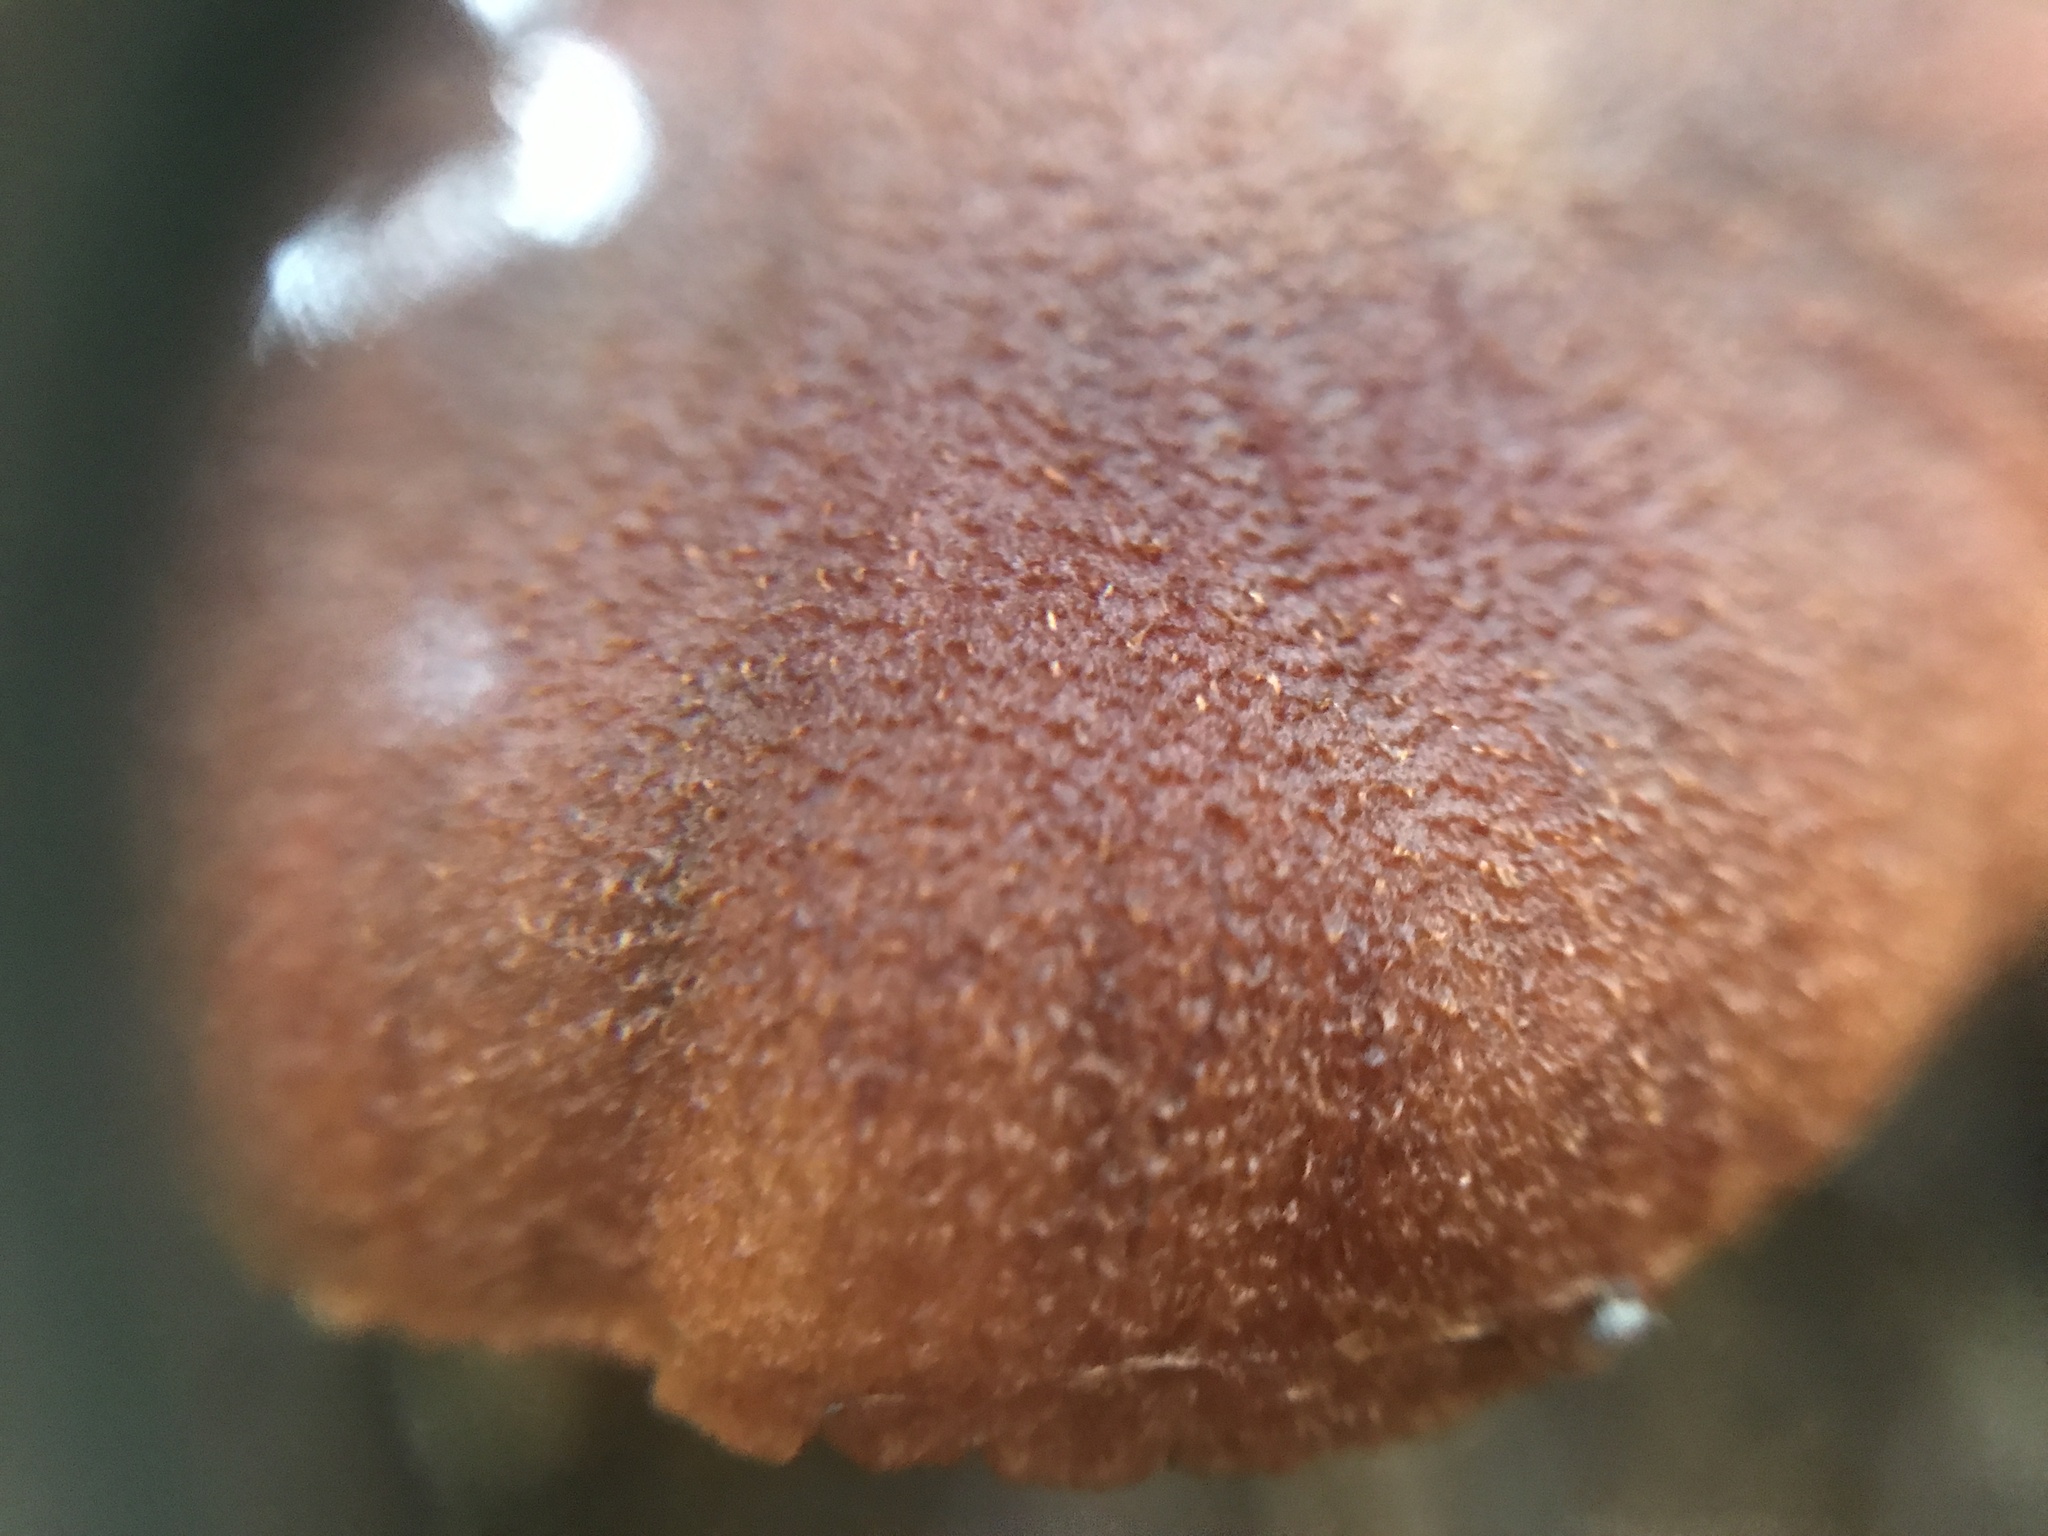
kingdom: Fungi
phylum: Basidiomycota
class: Agaricomycetes
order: Agaricales
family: Cortinariaceae
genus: Cortinarius
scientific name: Cortinarius rubellus
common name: Deadly webcap
